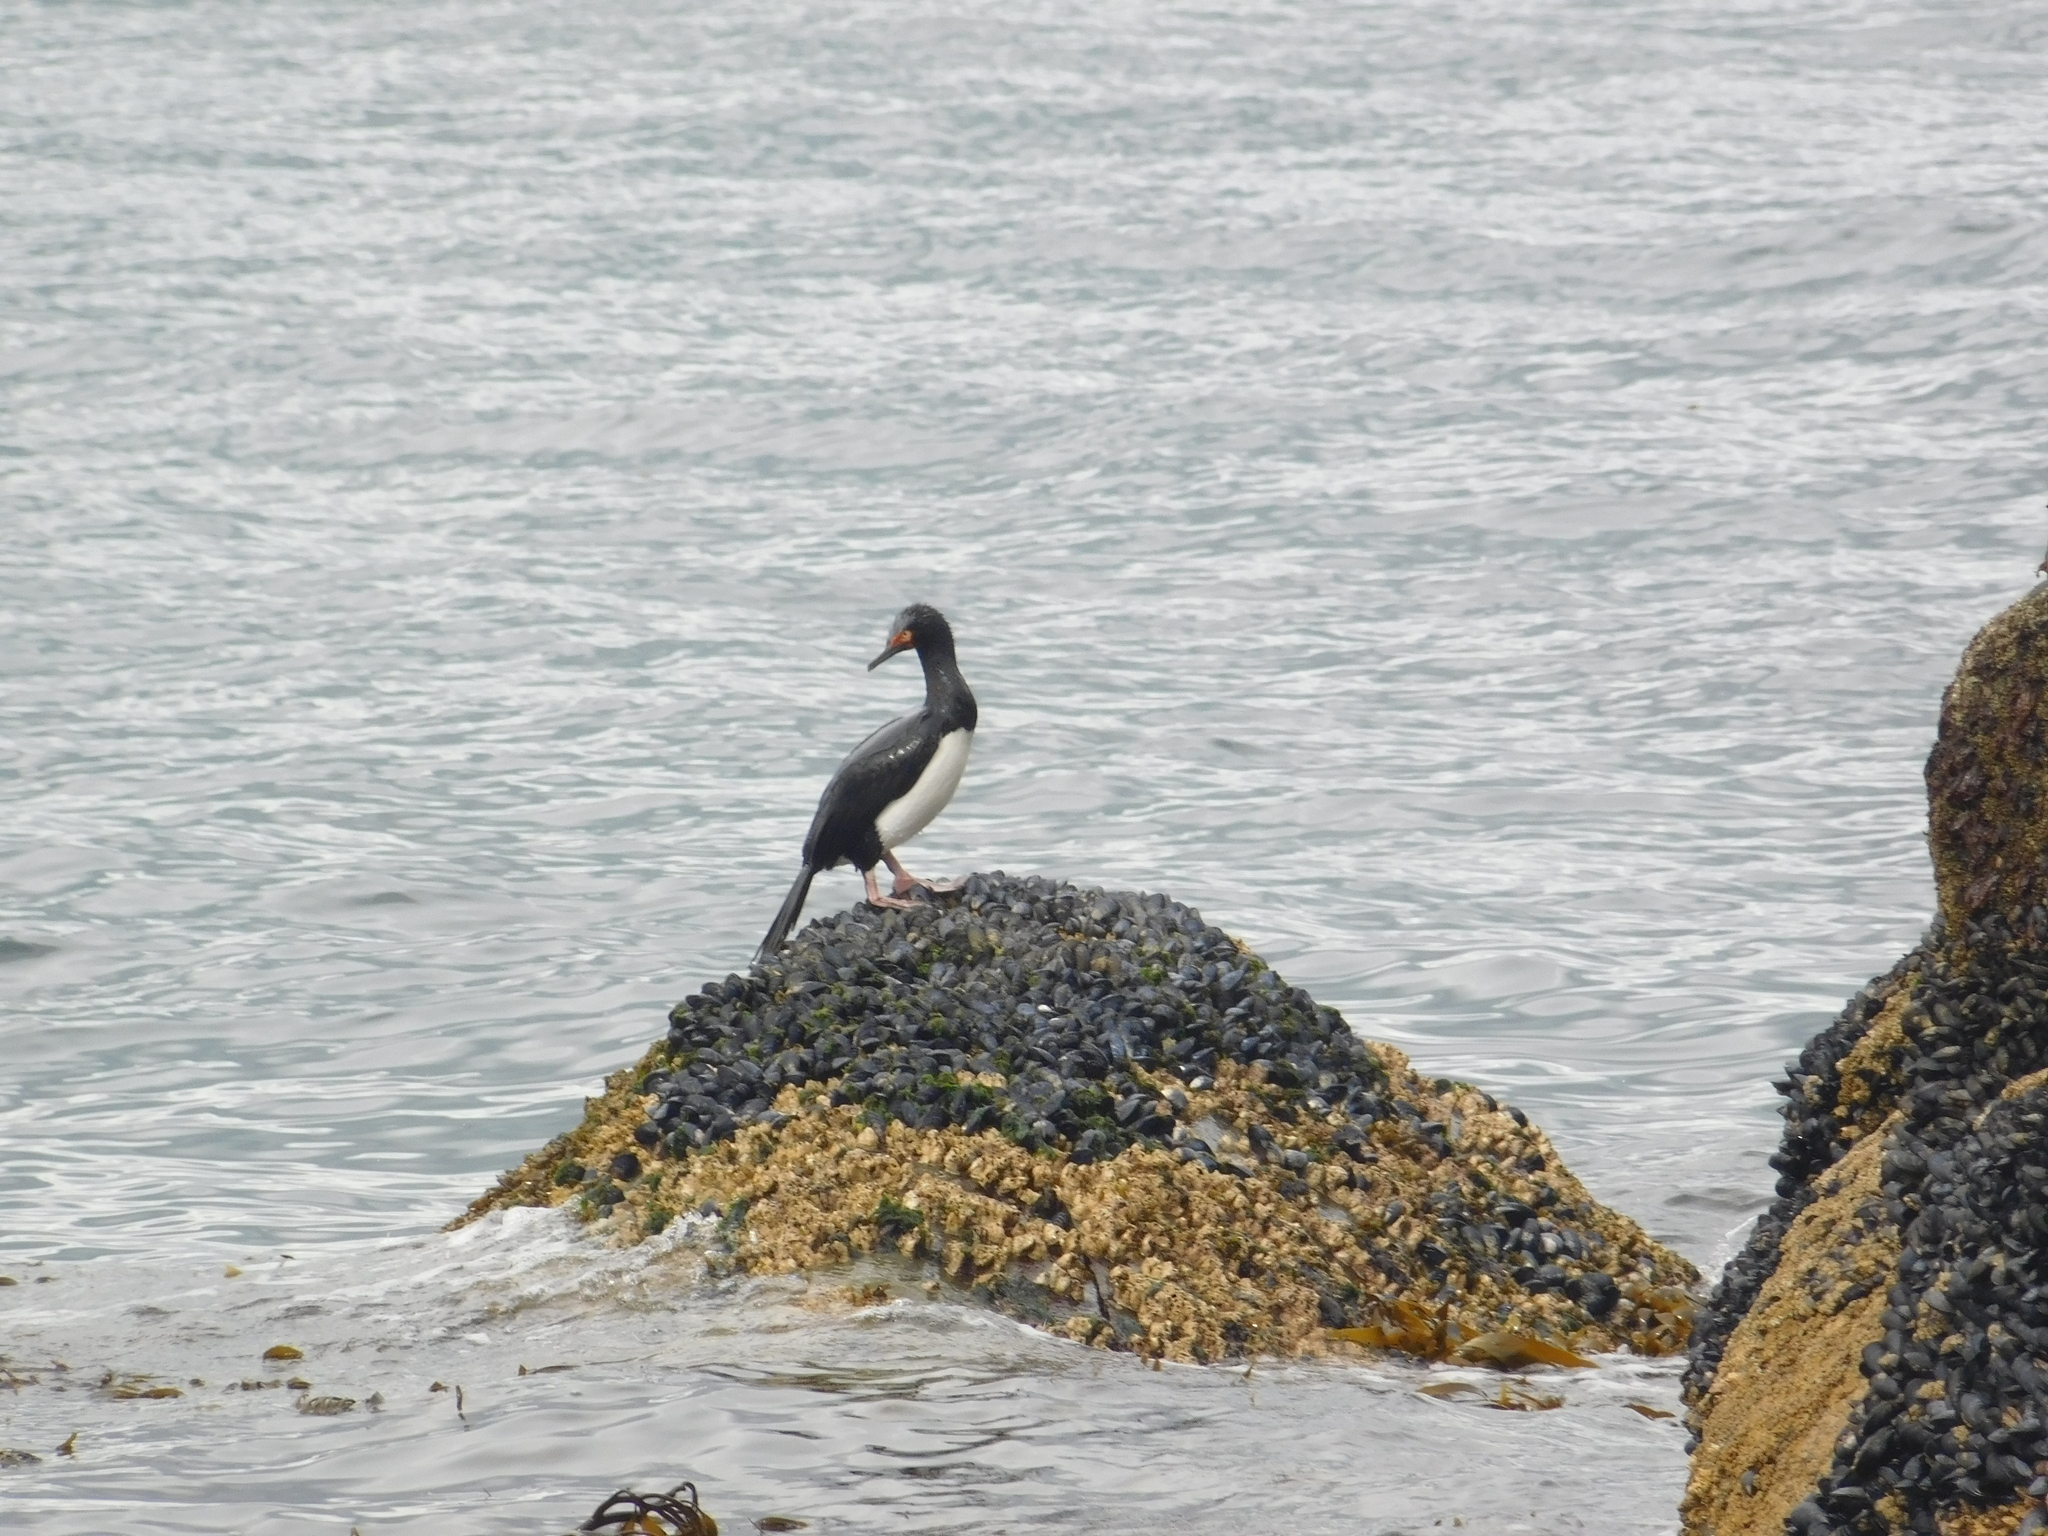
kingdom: Animalia
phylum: Chordata
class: Aves
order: Suliformes
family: Phalacrocoracidae
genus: Phalacrocorax
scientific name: Phalacrocorax magellanicus
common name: Rock shag
